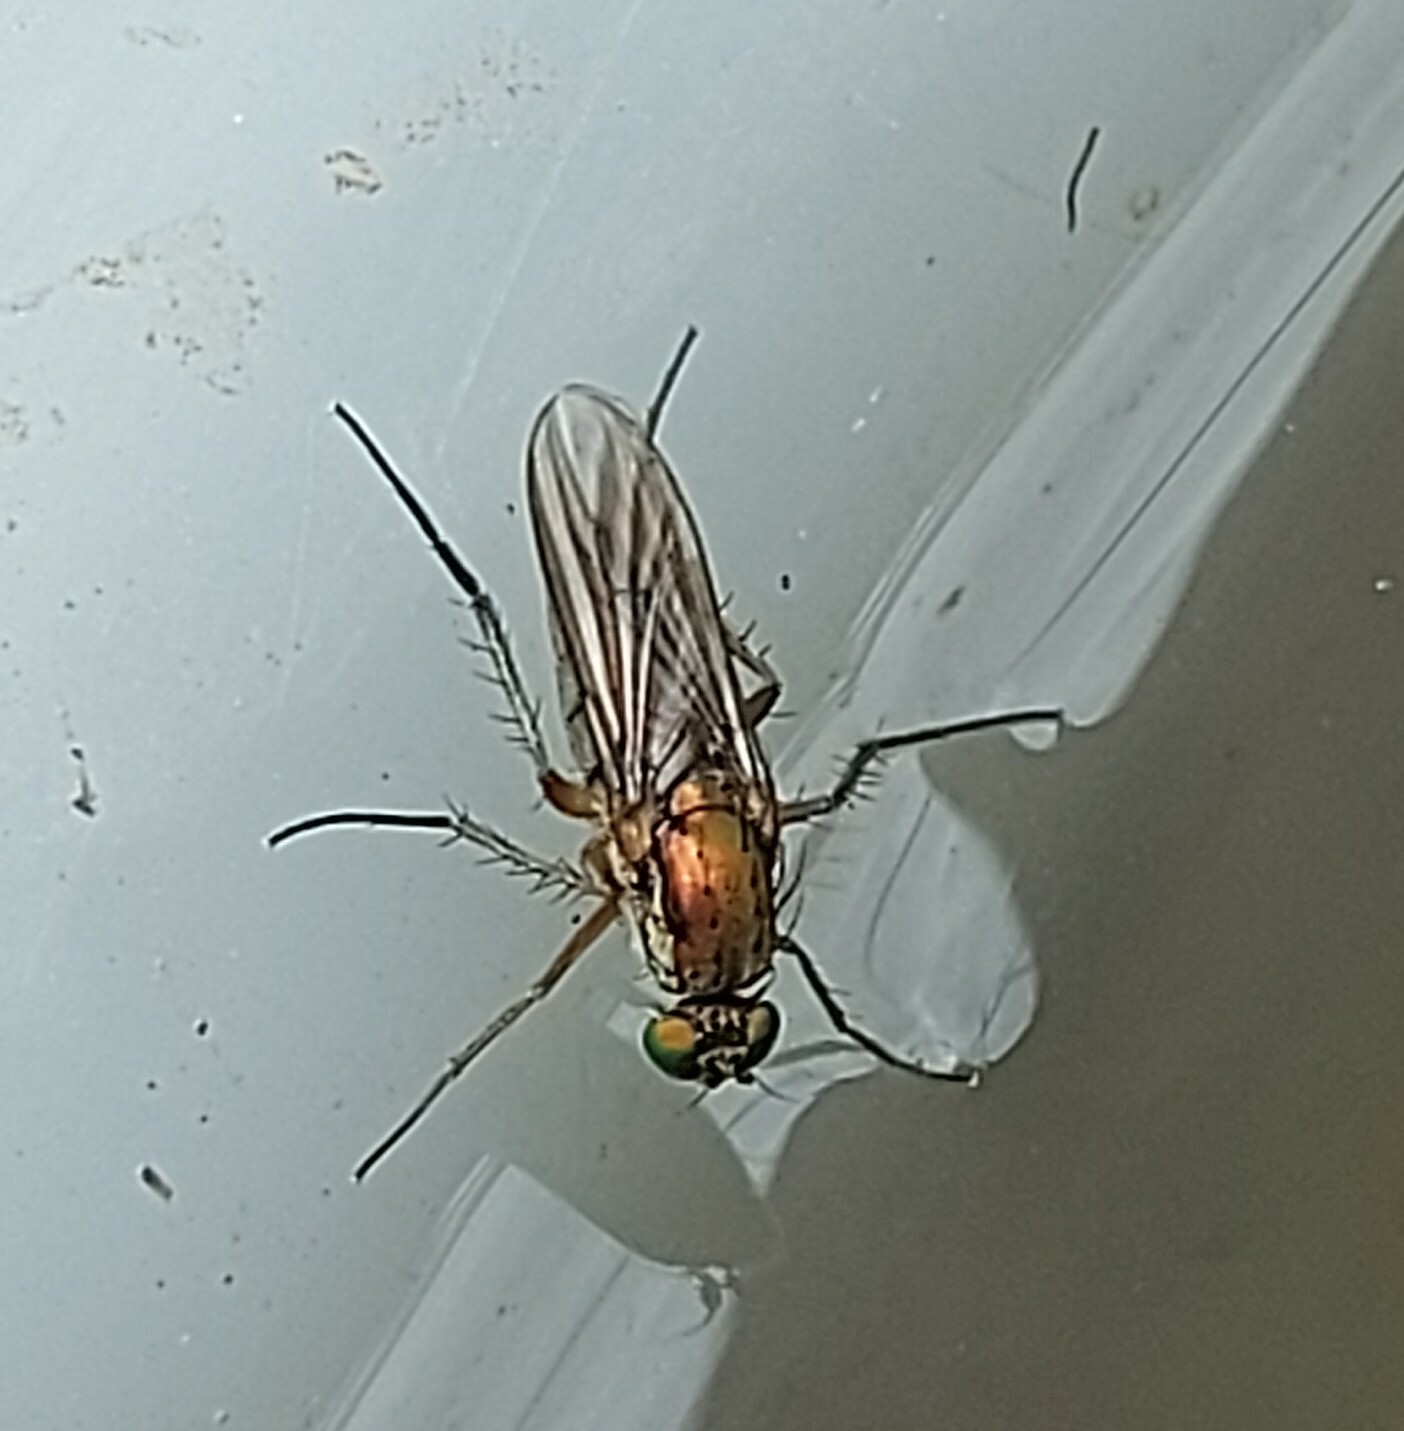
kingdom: Animalia
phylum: Arthropoda
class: Insecta
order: Diptera
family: Dolichopodidae
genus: Poecilobothrus
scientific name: Poecilobothrus nobilitatus
